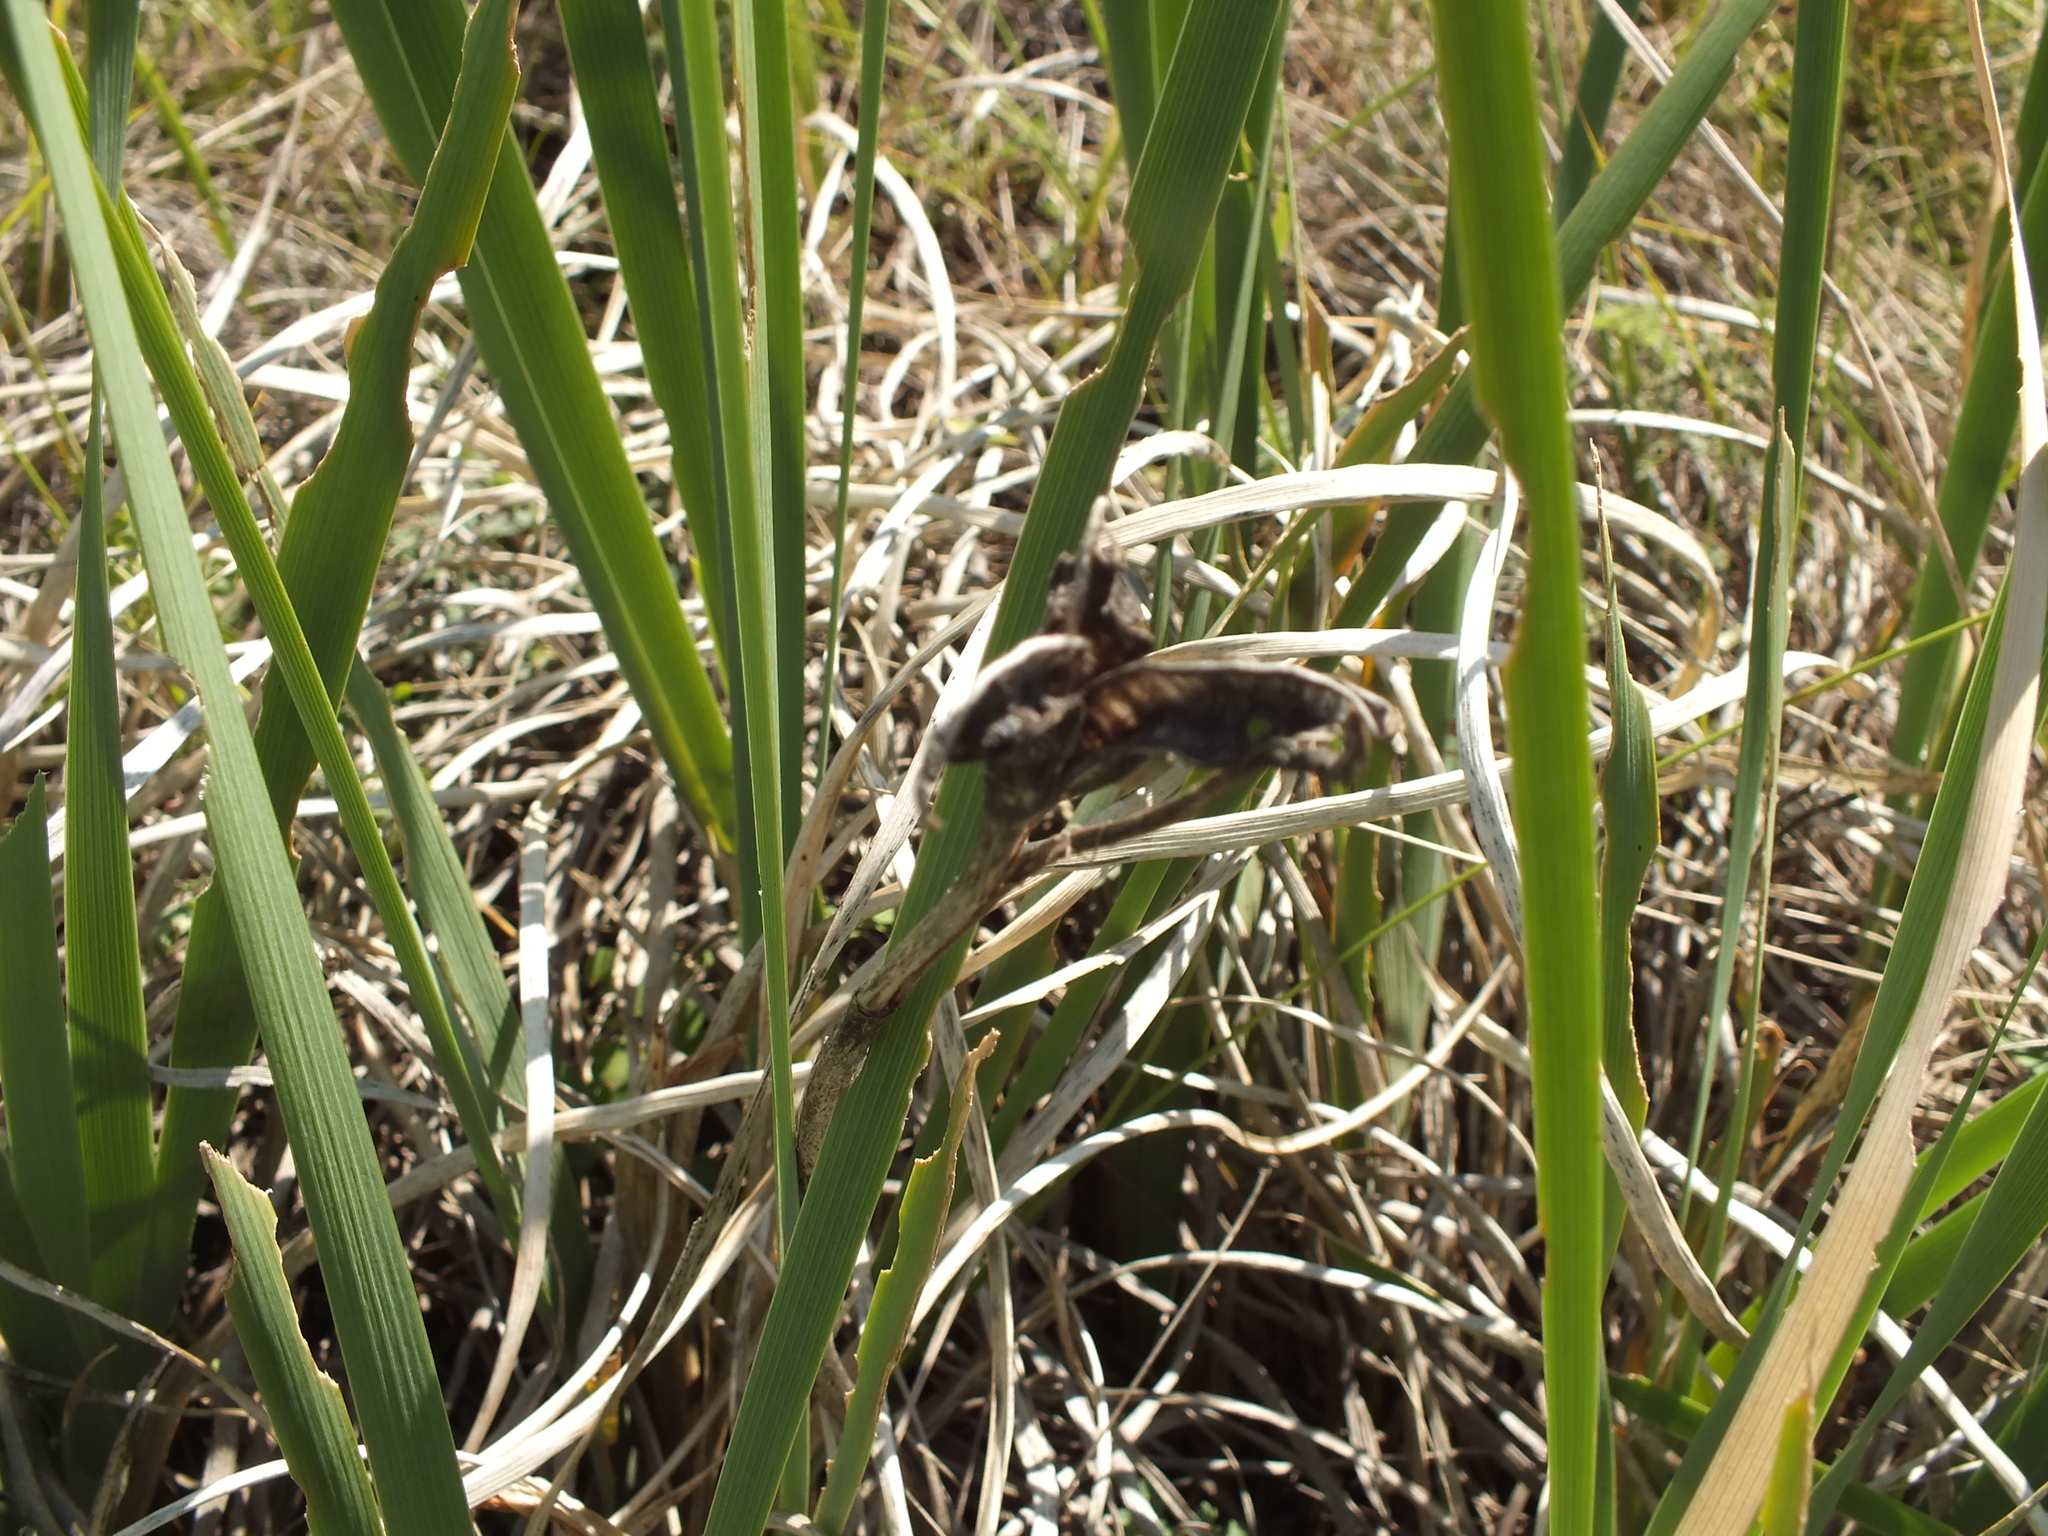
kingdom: Plantae
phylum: Tracheophyta
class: Liliopsida
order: Asparagales
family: Iridaceae
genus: Iris
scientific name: Iris lactea
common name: White-flower chinese iris
